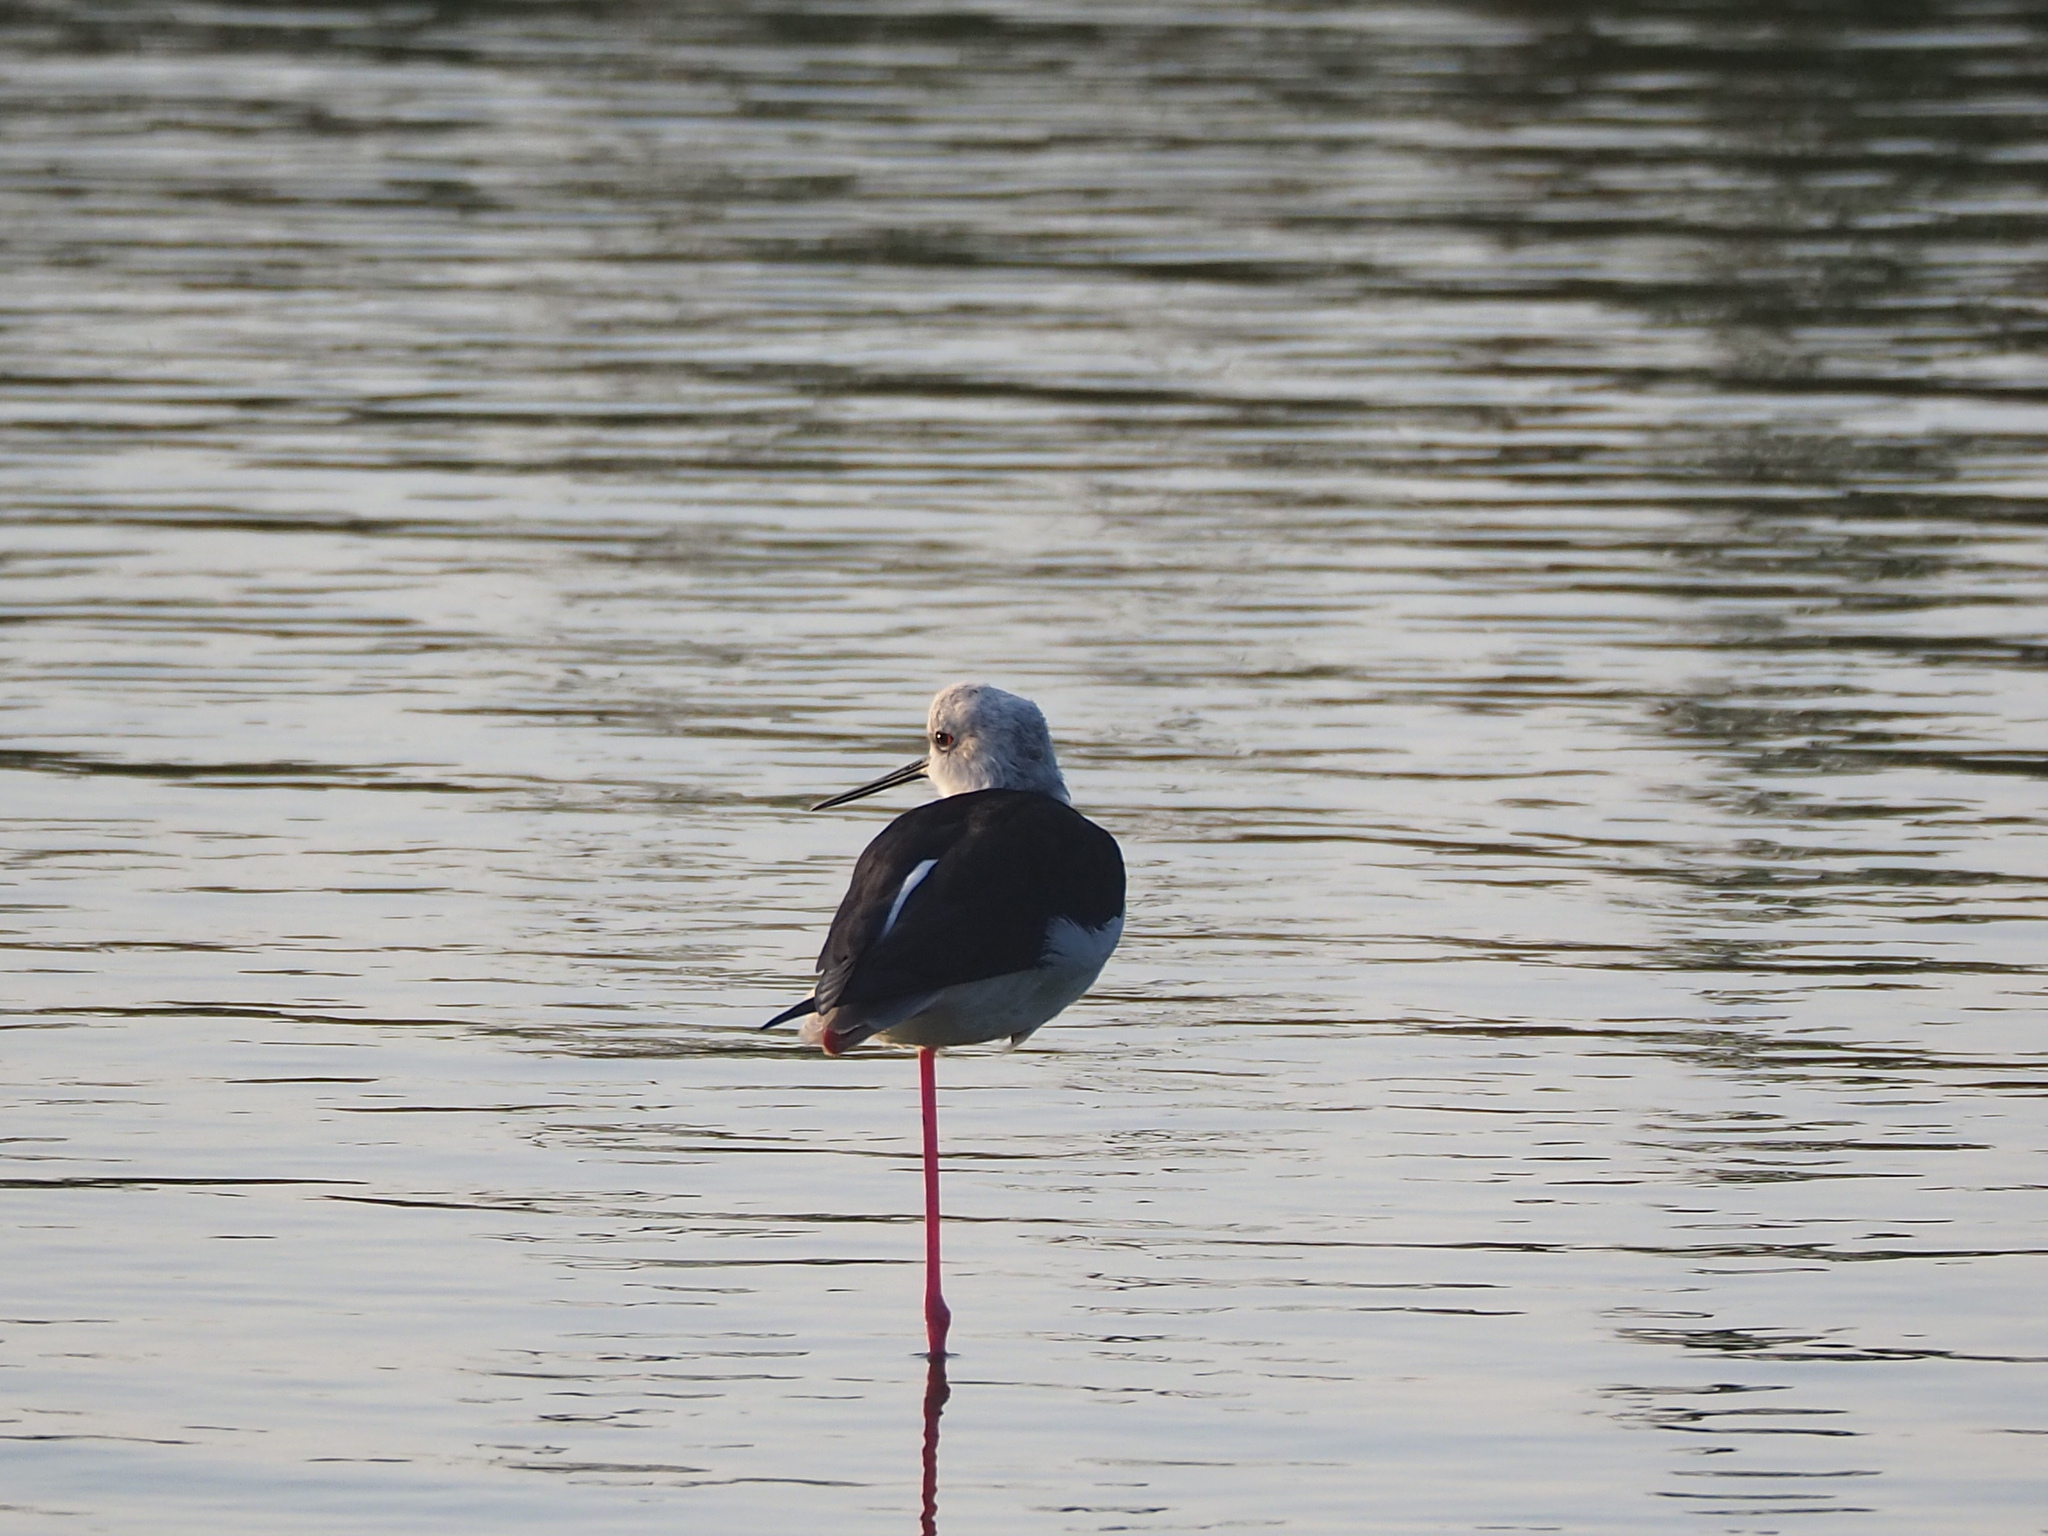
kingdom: Animalia
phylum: Chordata
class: Aves
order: Charadriiformes
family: Recurvirostridae
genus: Himantopus
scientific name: Himantopus himantopus
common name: Black-winged stilt
